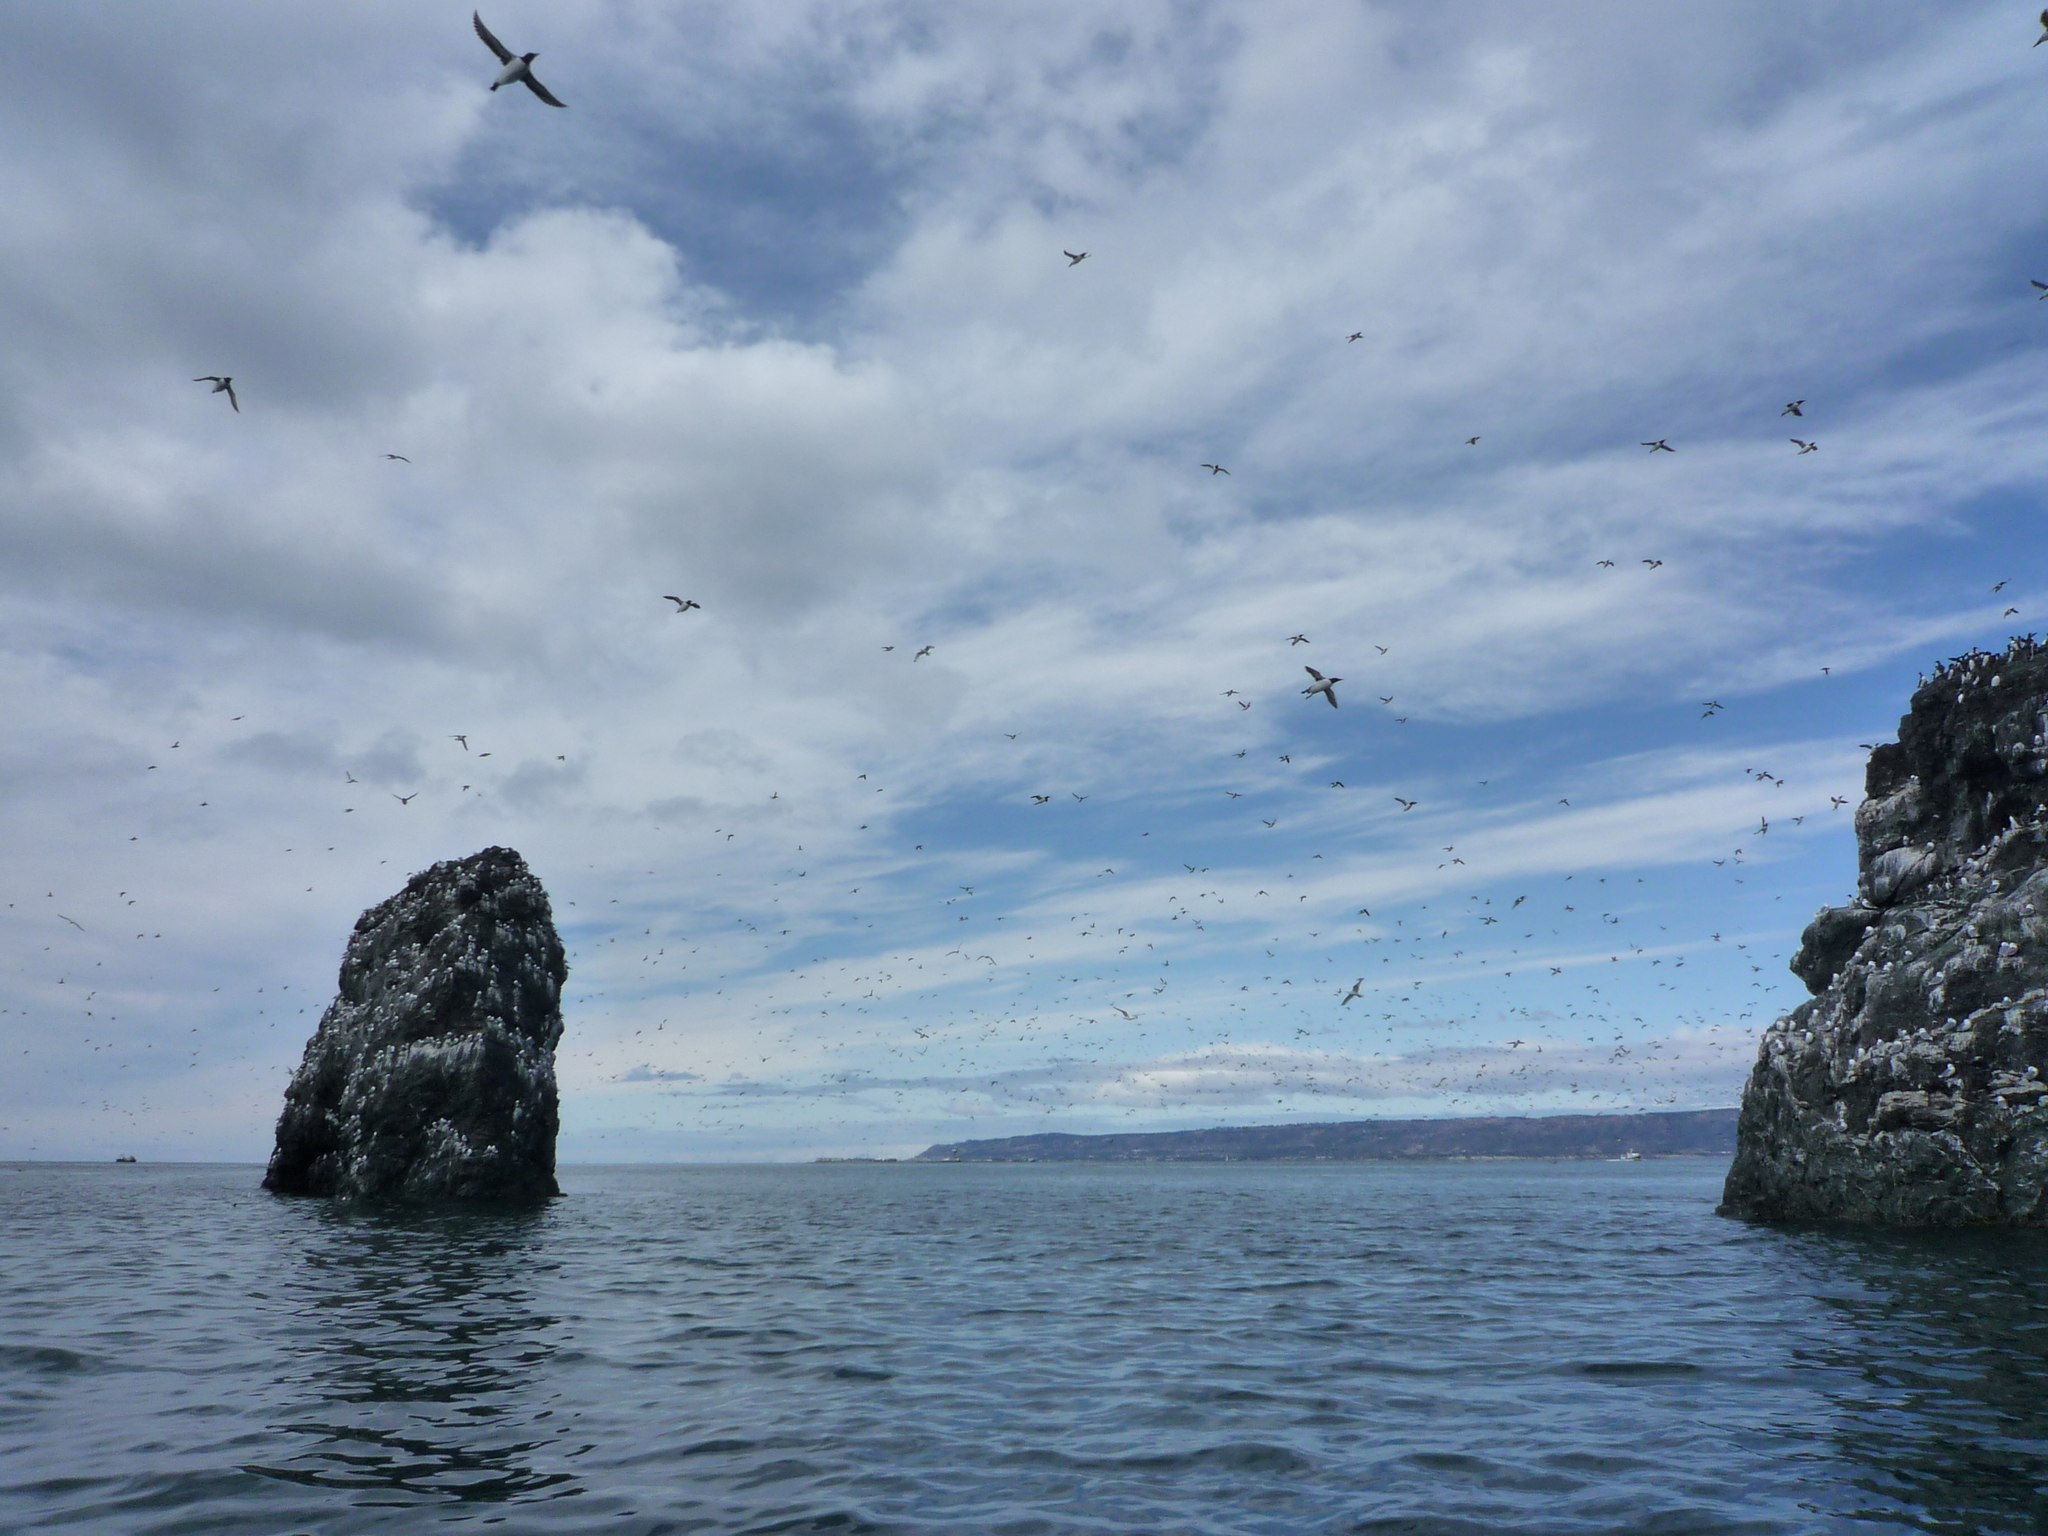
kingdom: Animalia
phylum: Chordata
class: Aves
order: Charadriiformes
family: Alcidae
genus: Uria
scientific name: Uria aalge
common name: Common murre
